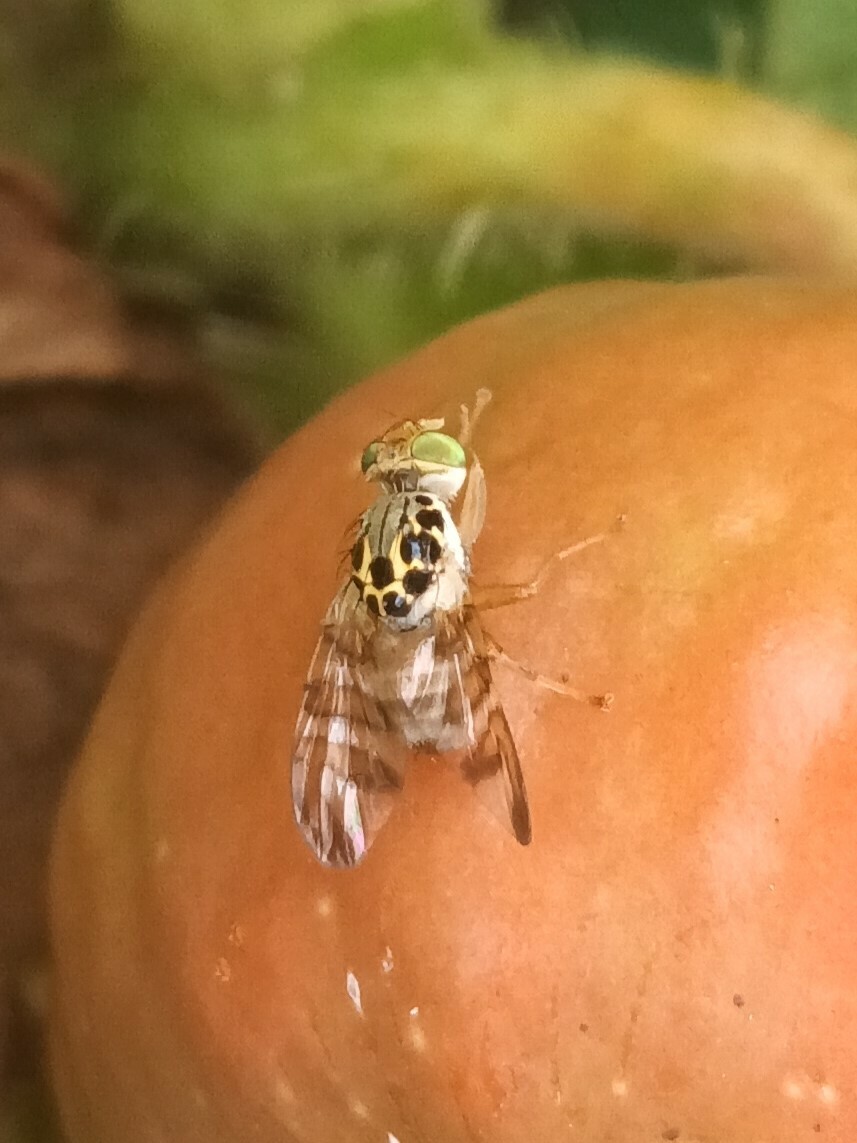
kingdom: Animalia
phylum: Arthropoda
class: Insecta
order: Diptera
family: Tephritidae
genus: Carpomya
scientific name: Carpomya schineri
